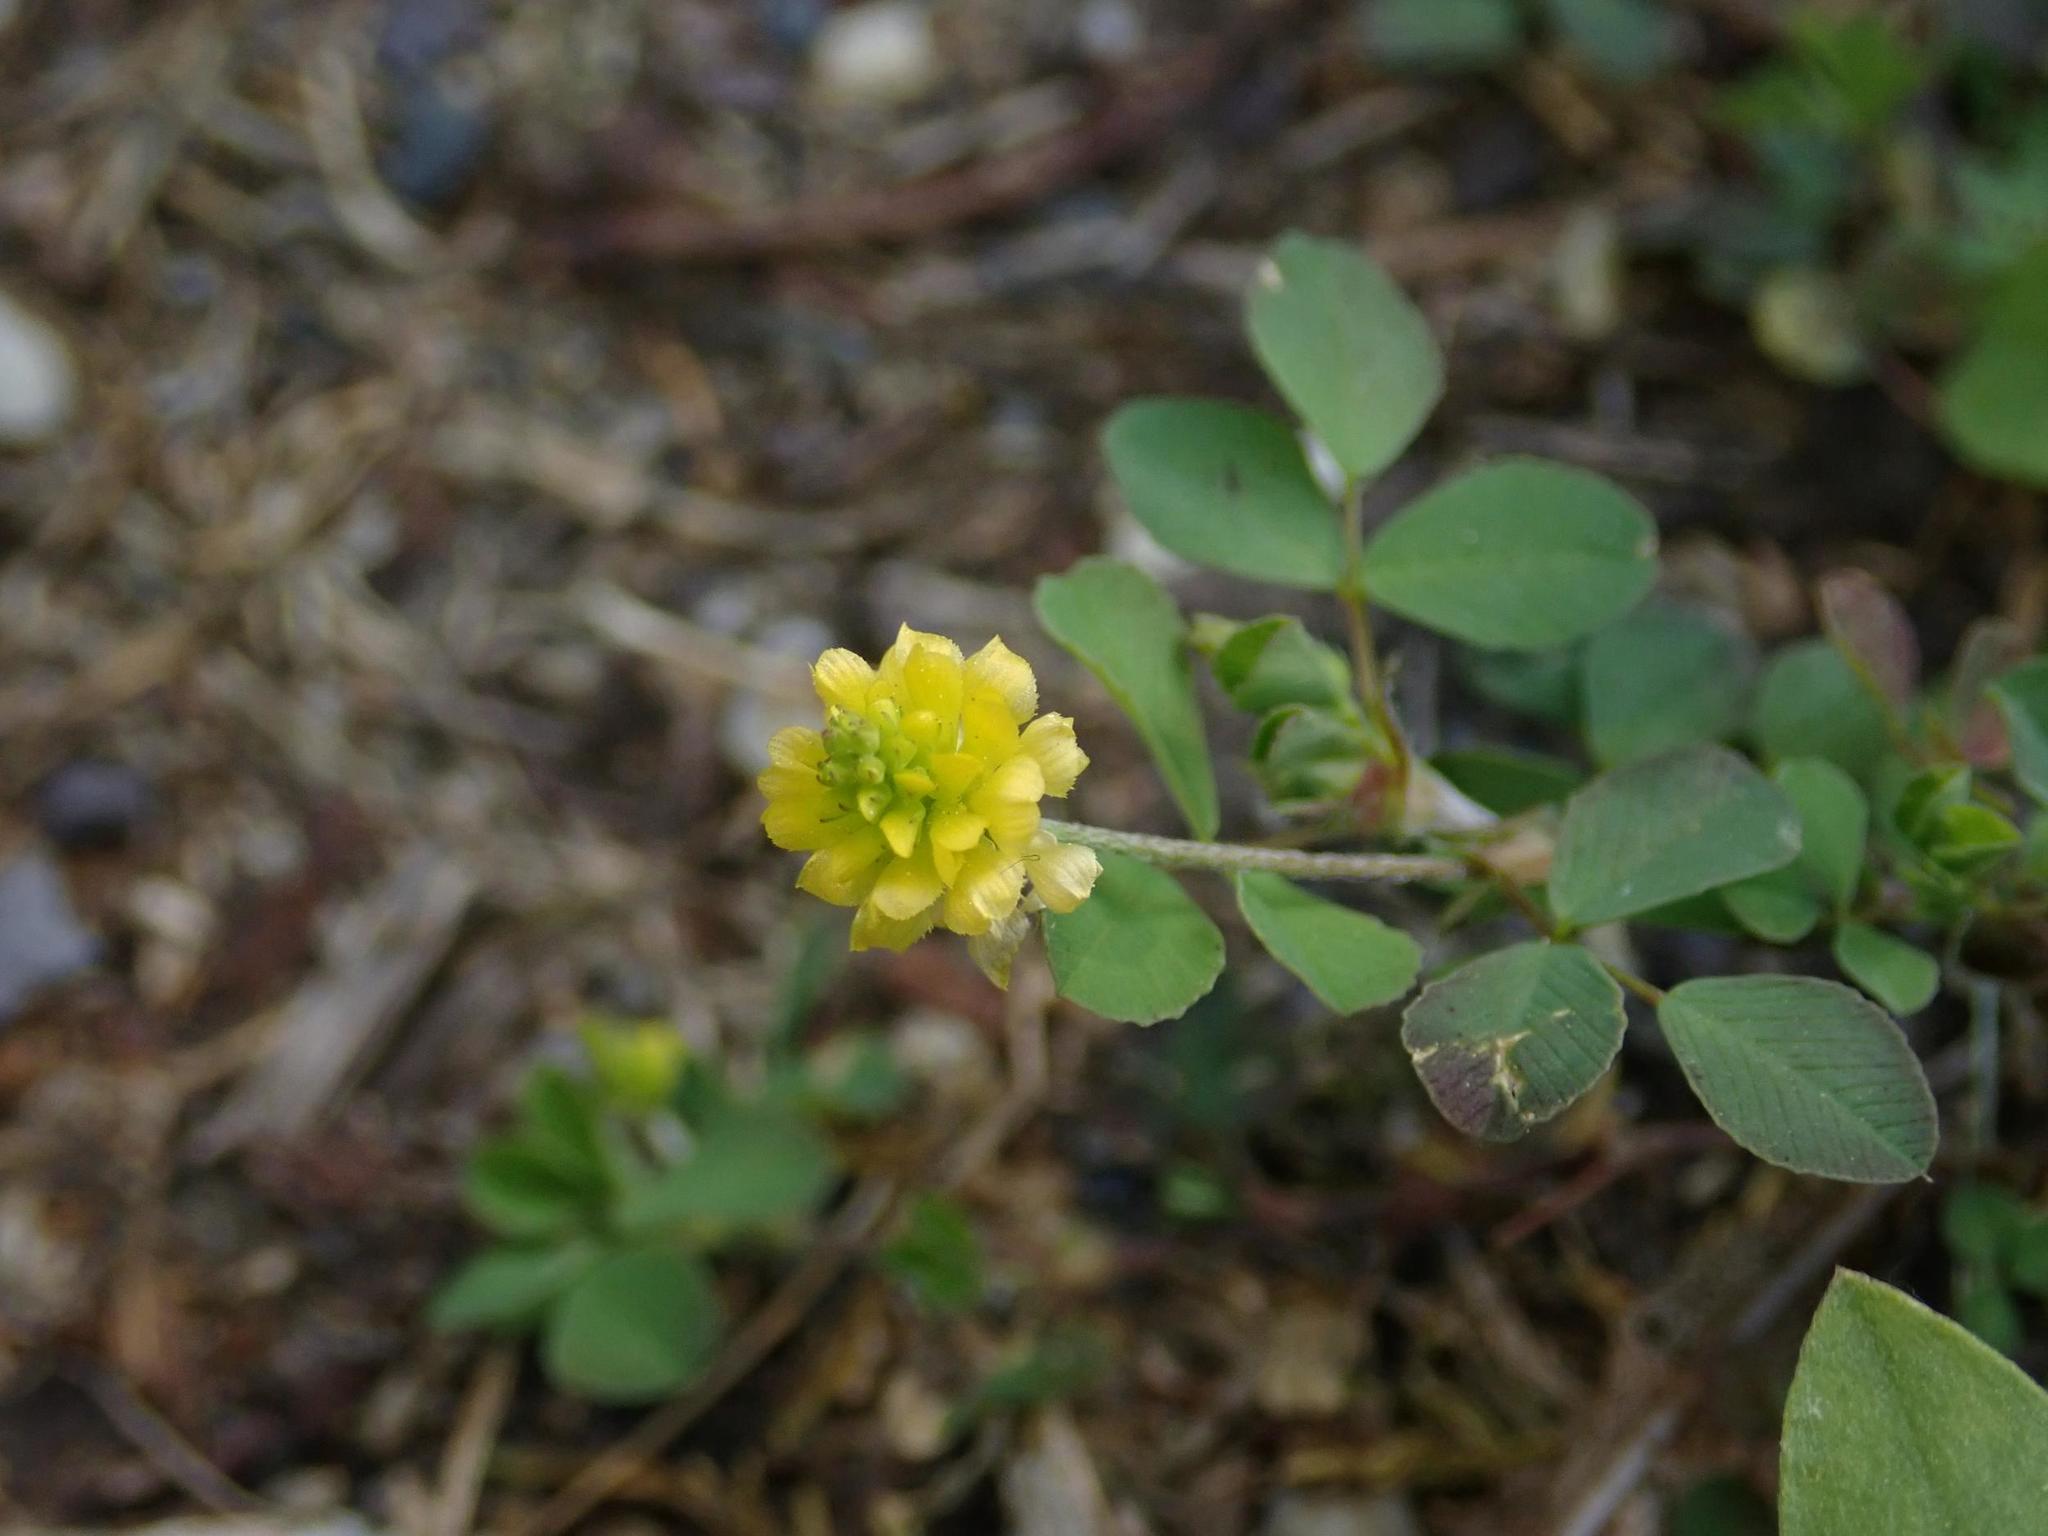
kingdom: Plantae
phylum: Tracheophyta
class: Magnoliopsida
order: Fabales
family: Fabaceae
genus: Trifolium
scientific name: Trifolium campestre
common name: Field clover
